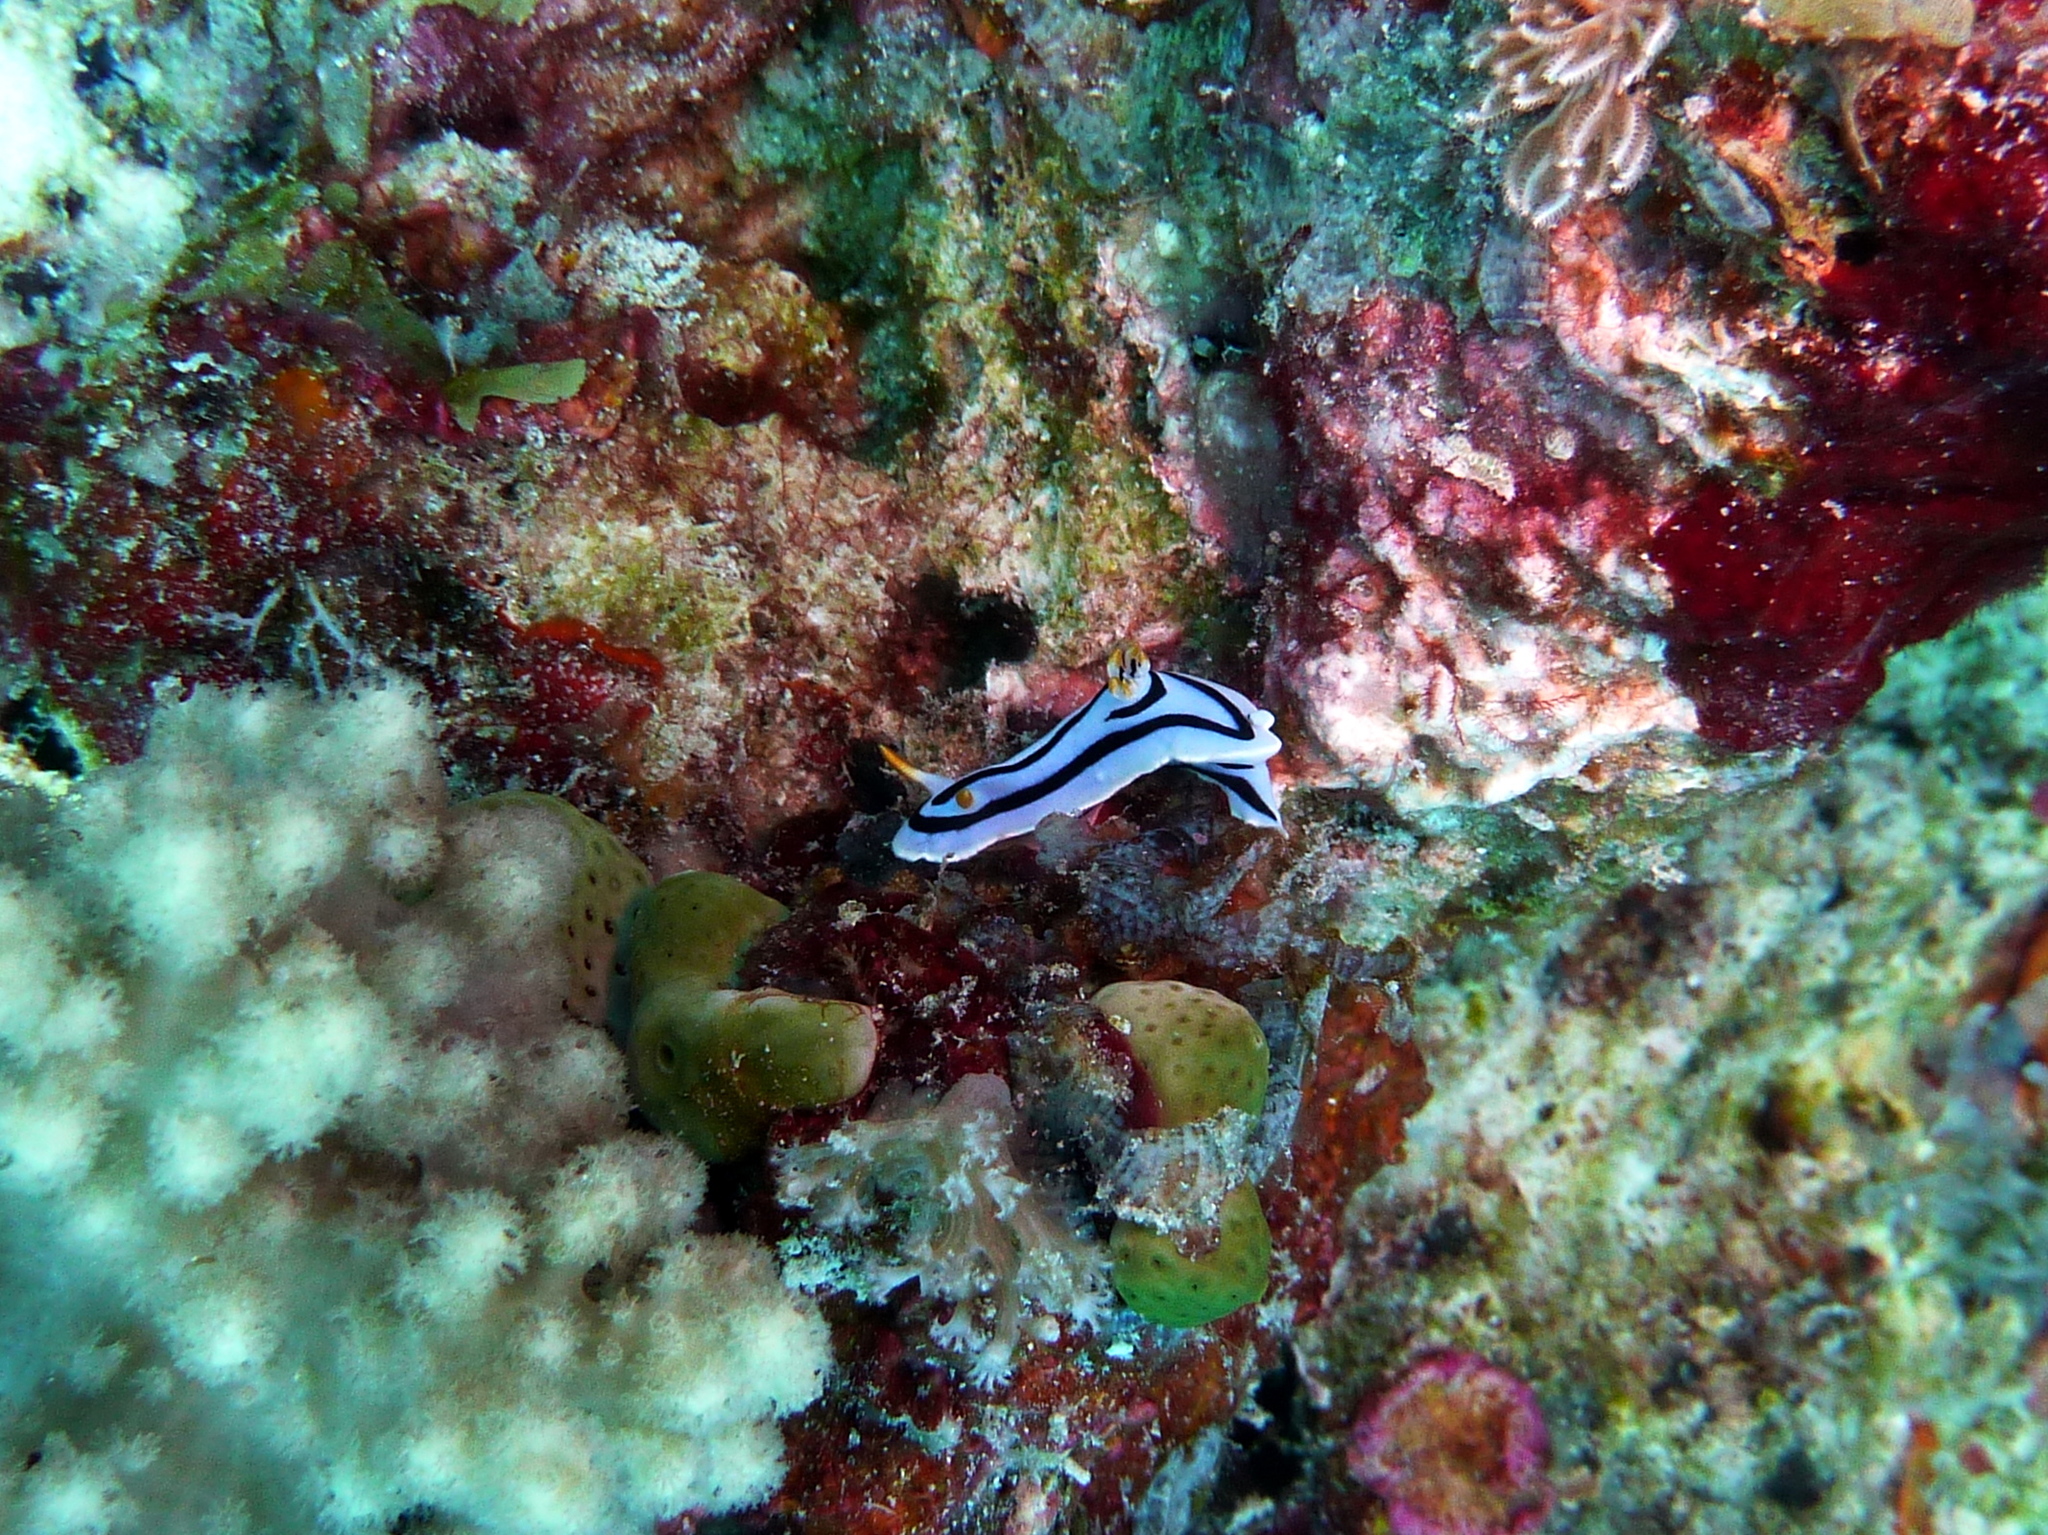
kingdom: Animalia
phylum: Mollusca
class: Gastropoda
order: Nudibranchia
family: Chromodorididae
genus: Chromodoris
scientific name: Chromodoris lochi
